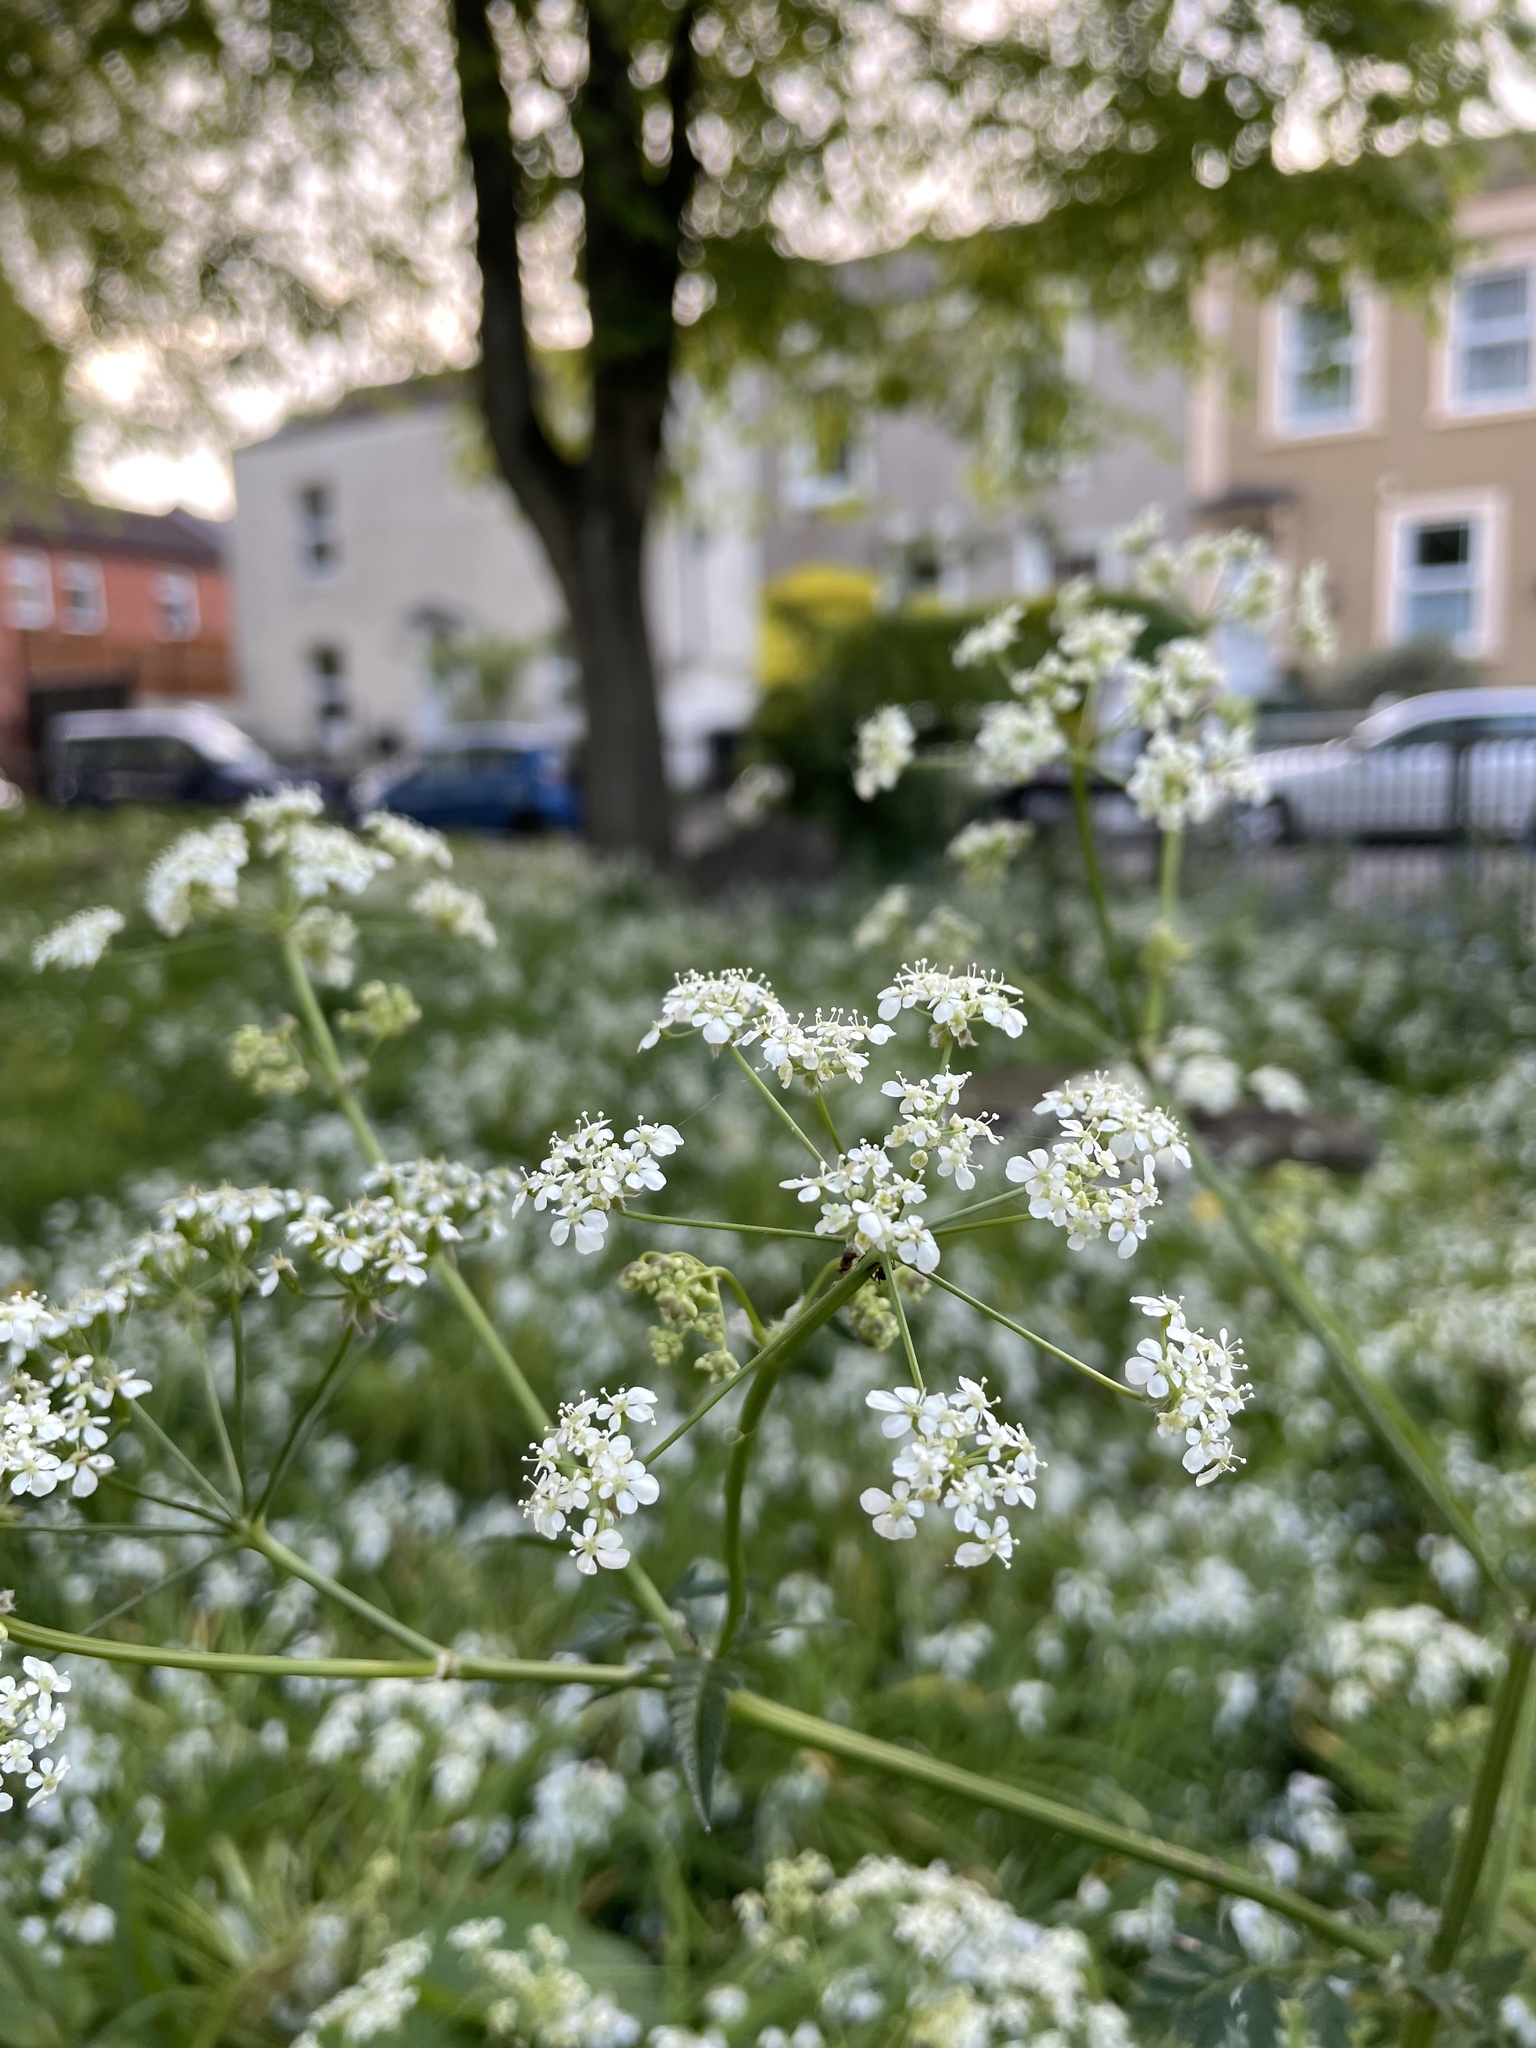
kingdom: Plantae
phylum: Tracheophyta
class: Magnoliopsida
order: Apiales
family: Apiaceae
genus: Anthriscus
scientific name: Anthriscus sylvestris
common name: Cow parsley
